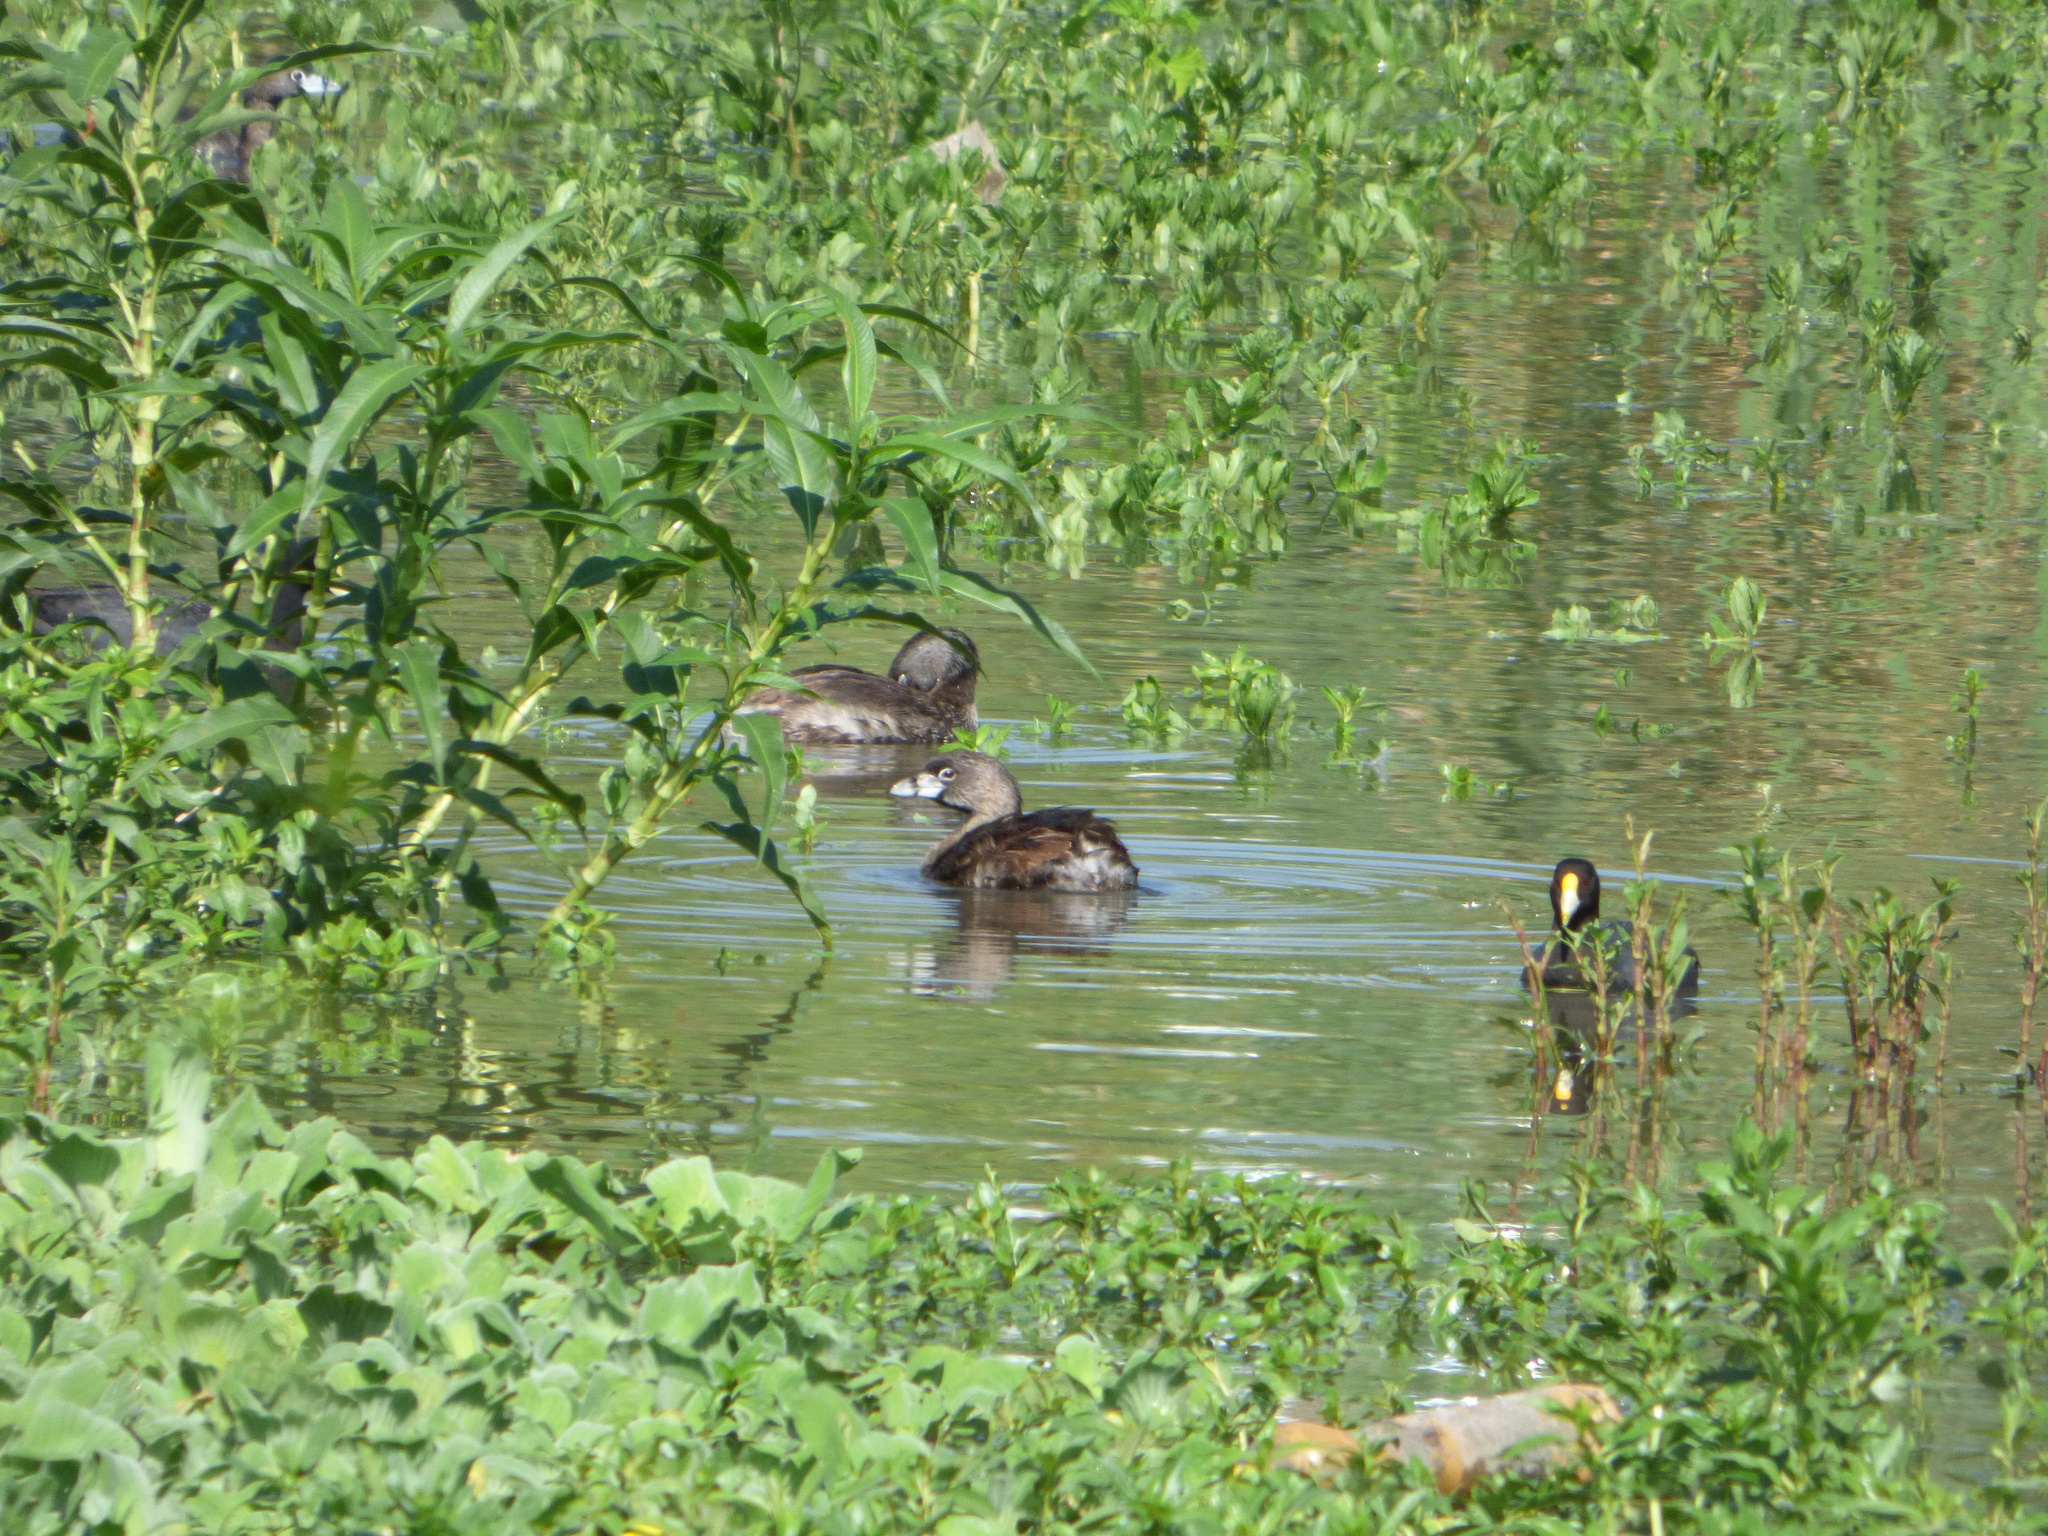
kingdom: Animalia
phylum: Chordata
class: Aves
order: Podicipediformes
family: Podicipedidae
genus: Podilymbus
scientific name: Podilymbus podiceps
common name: Pied-billed grebe
